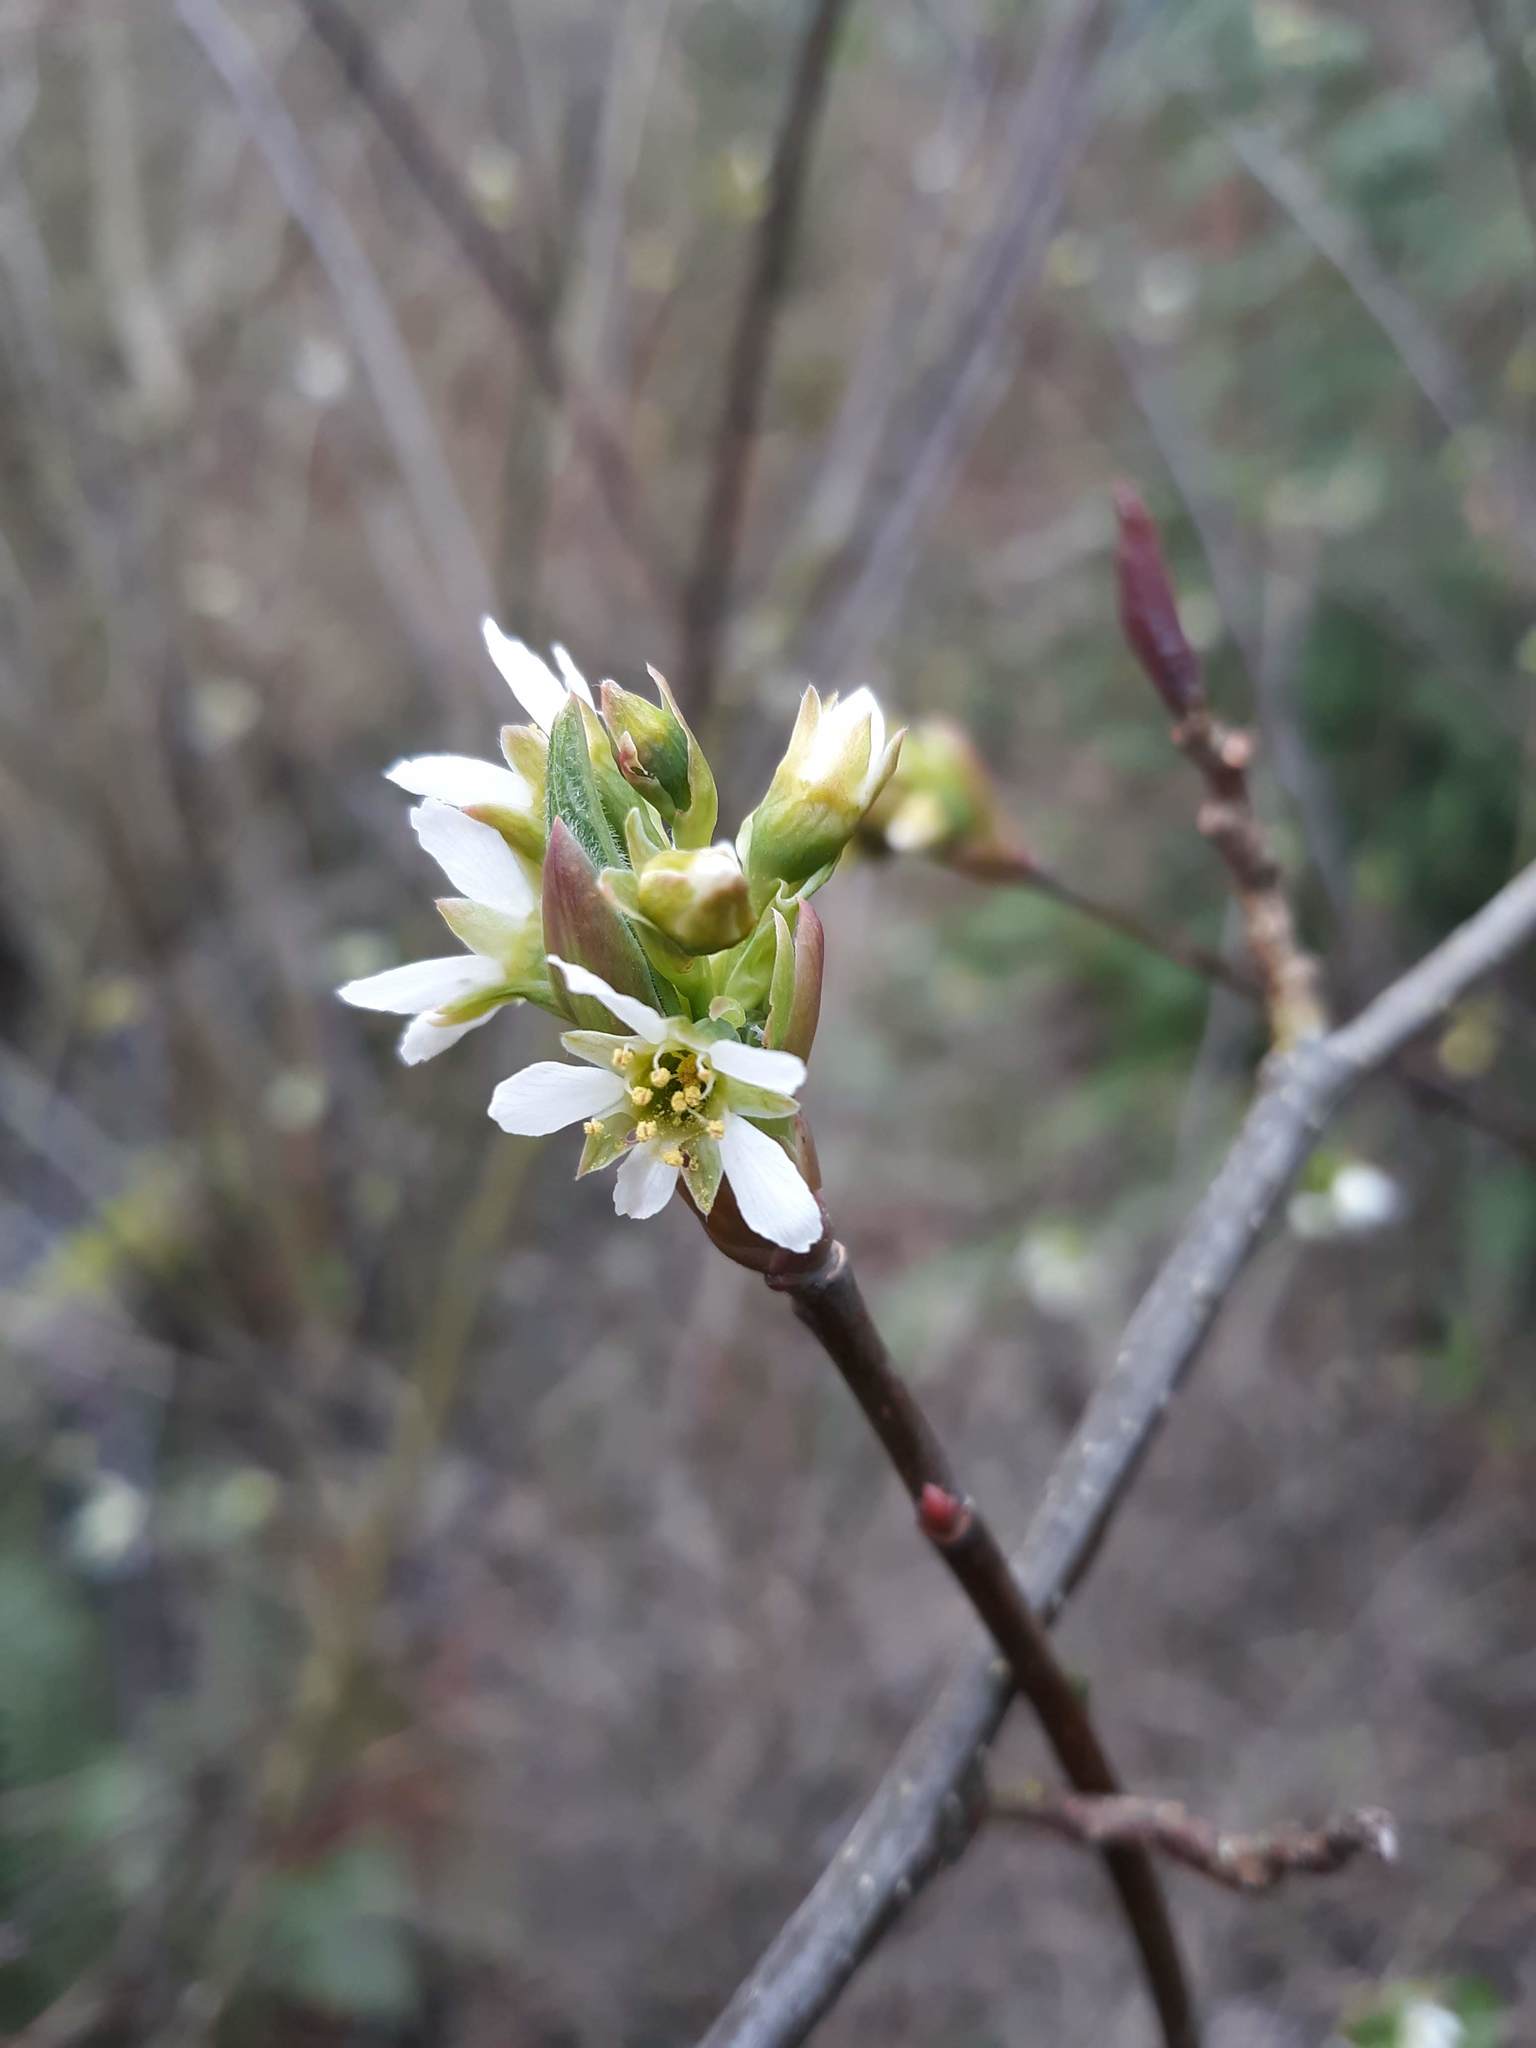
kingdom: Plantae
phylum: Tracheophyta
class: Magnoliopsida
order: Rosales
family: Rosaceae
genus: Oemleria
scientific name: Oemleria cerasiformis
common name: Osoberry
